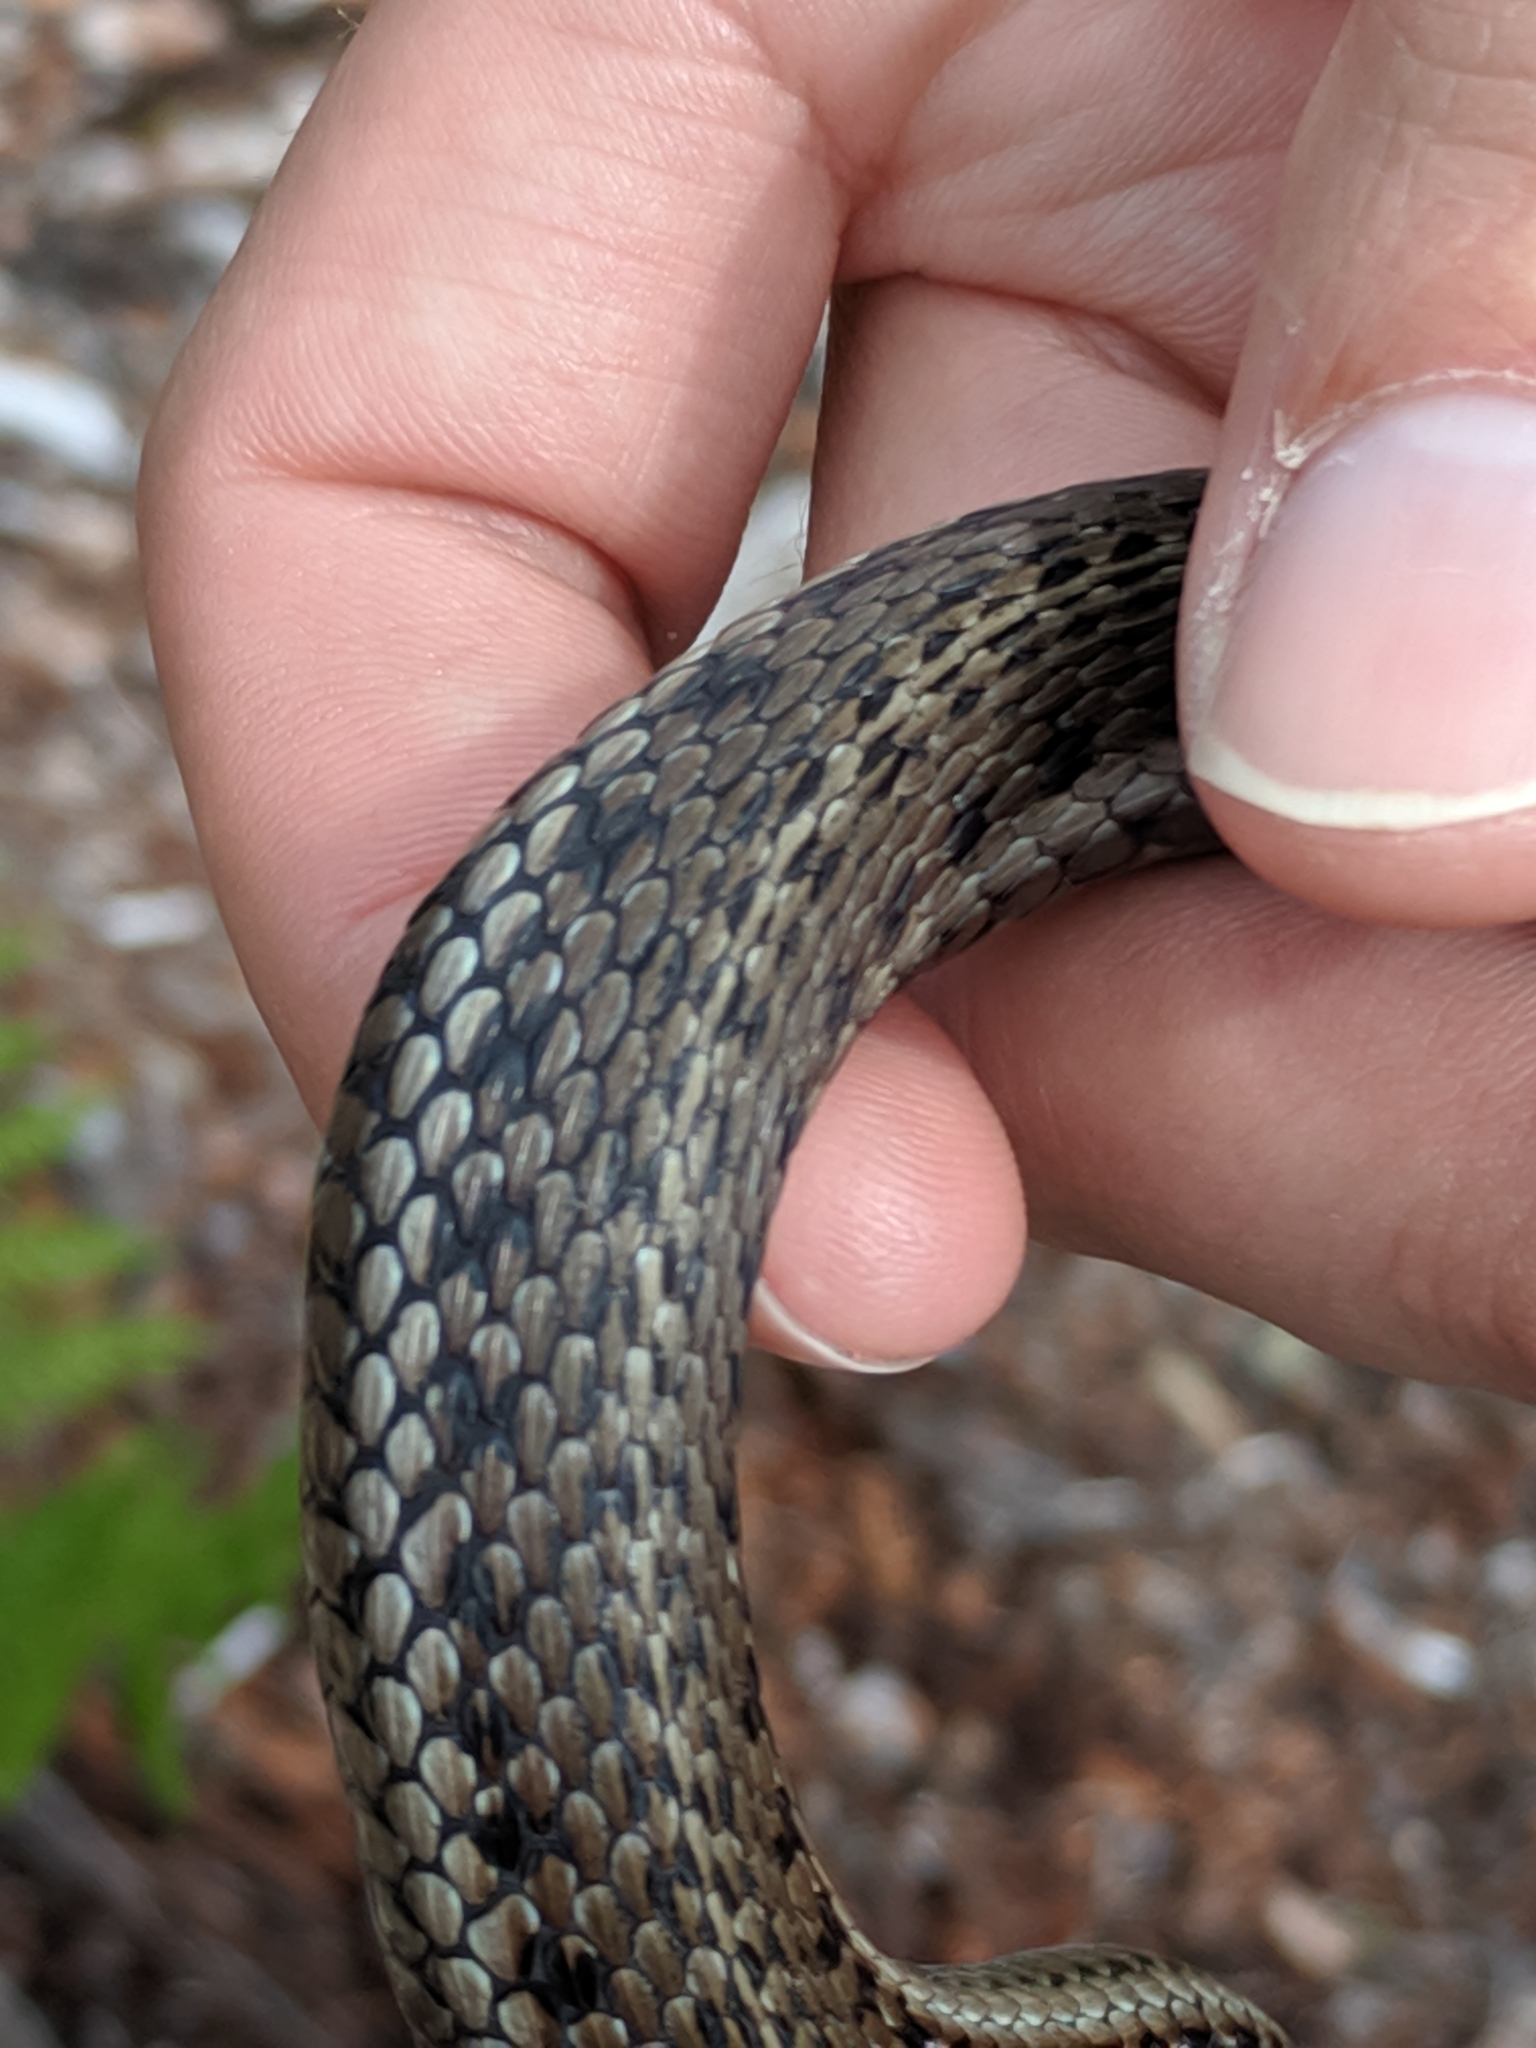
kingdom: Animalia
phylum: Chordata
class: Squamata
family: Colubridae
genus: Thamnophis
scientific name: Thamnophis ordinoides
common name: Northwestern garter snake
